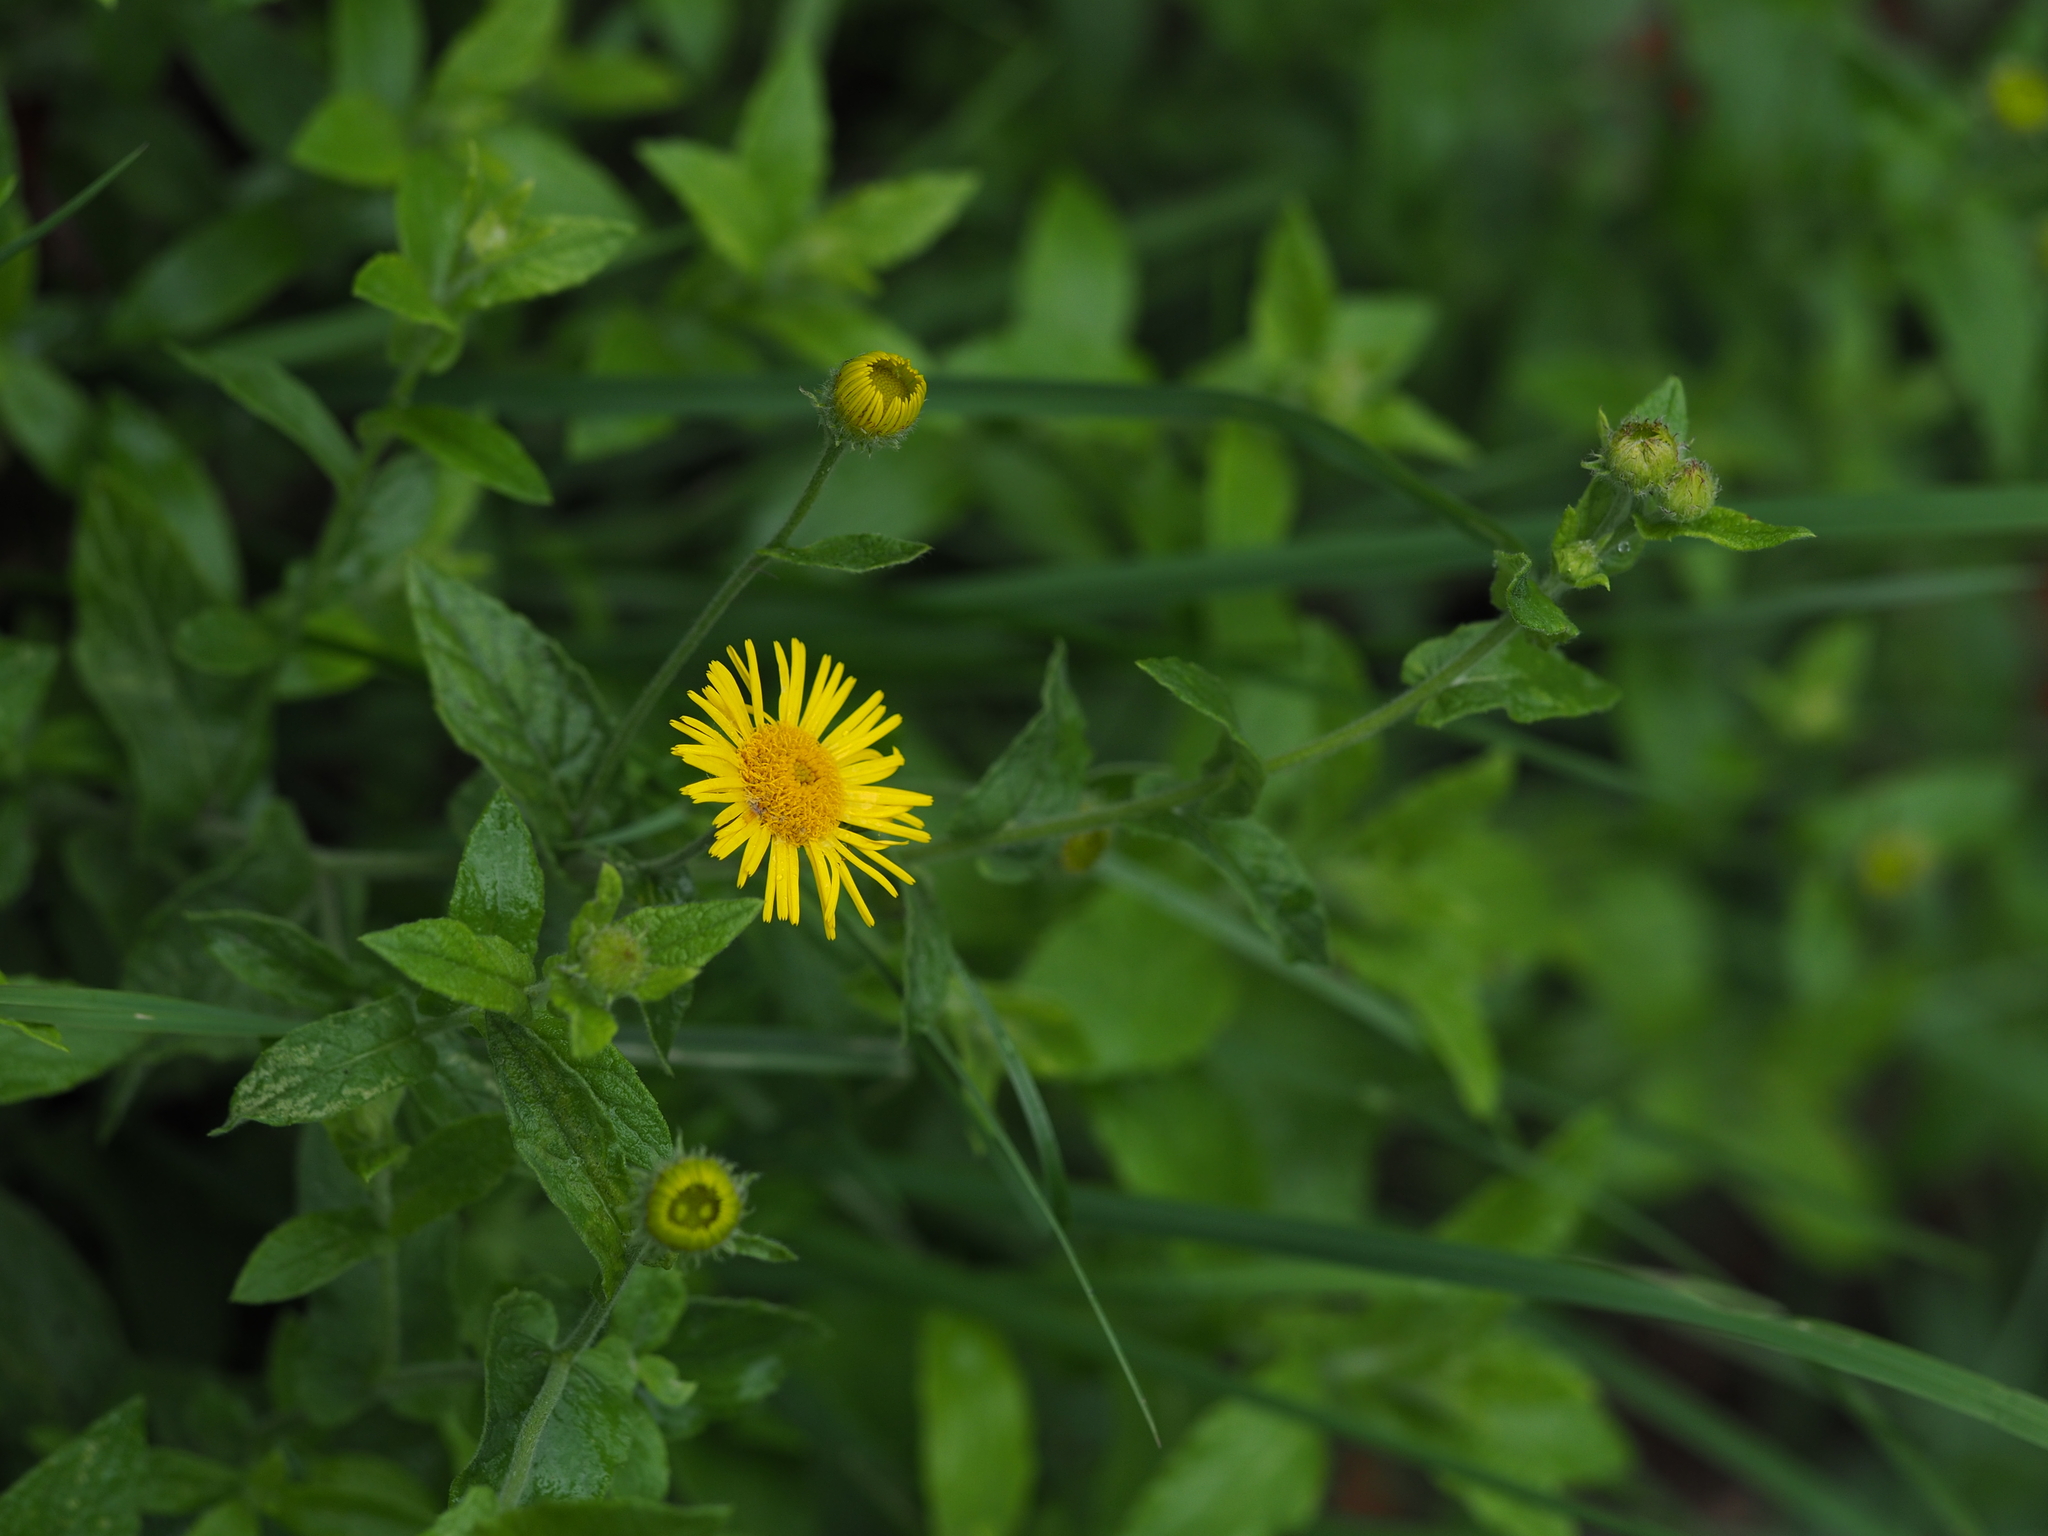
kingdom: Plantae
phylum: Tracheophyta
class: Magnoliopsida
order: Asterales
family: Asteraceae
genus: Pulicaria
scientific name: Pulicaria dysenterica
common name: Common fleabane
